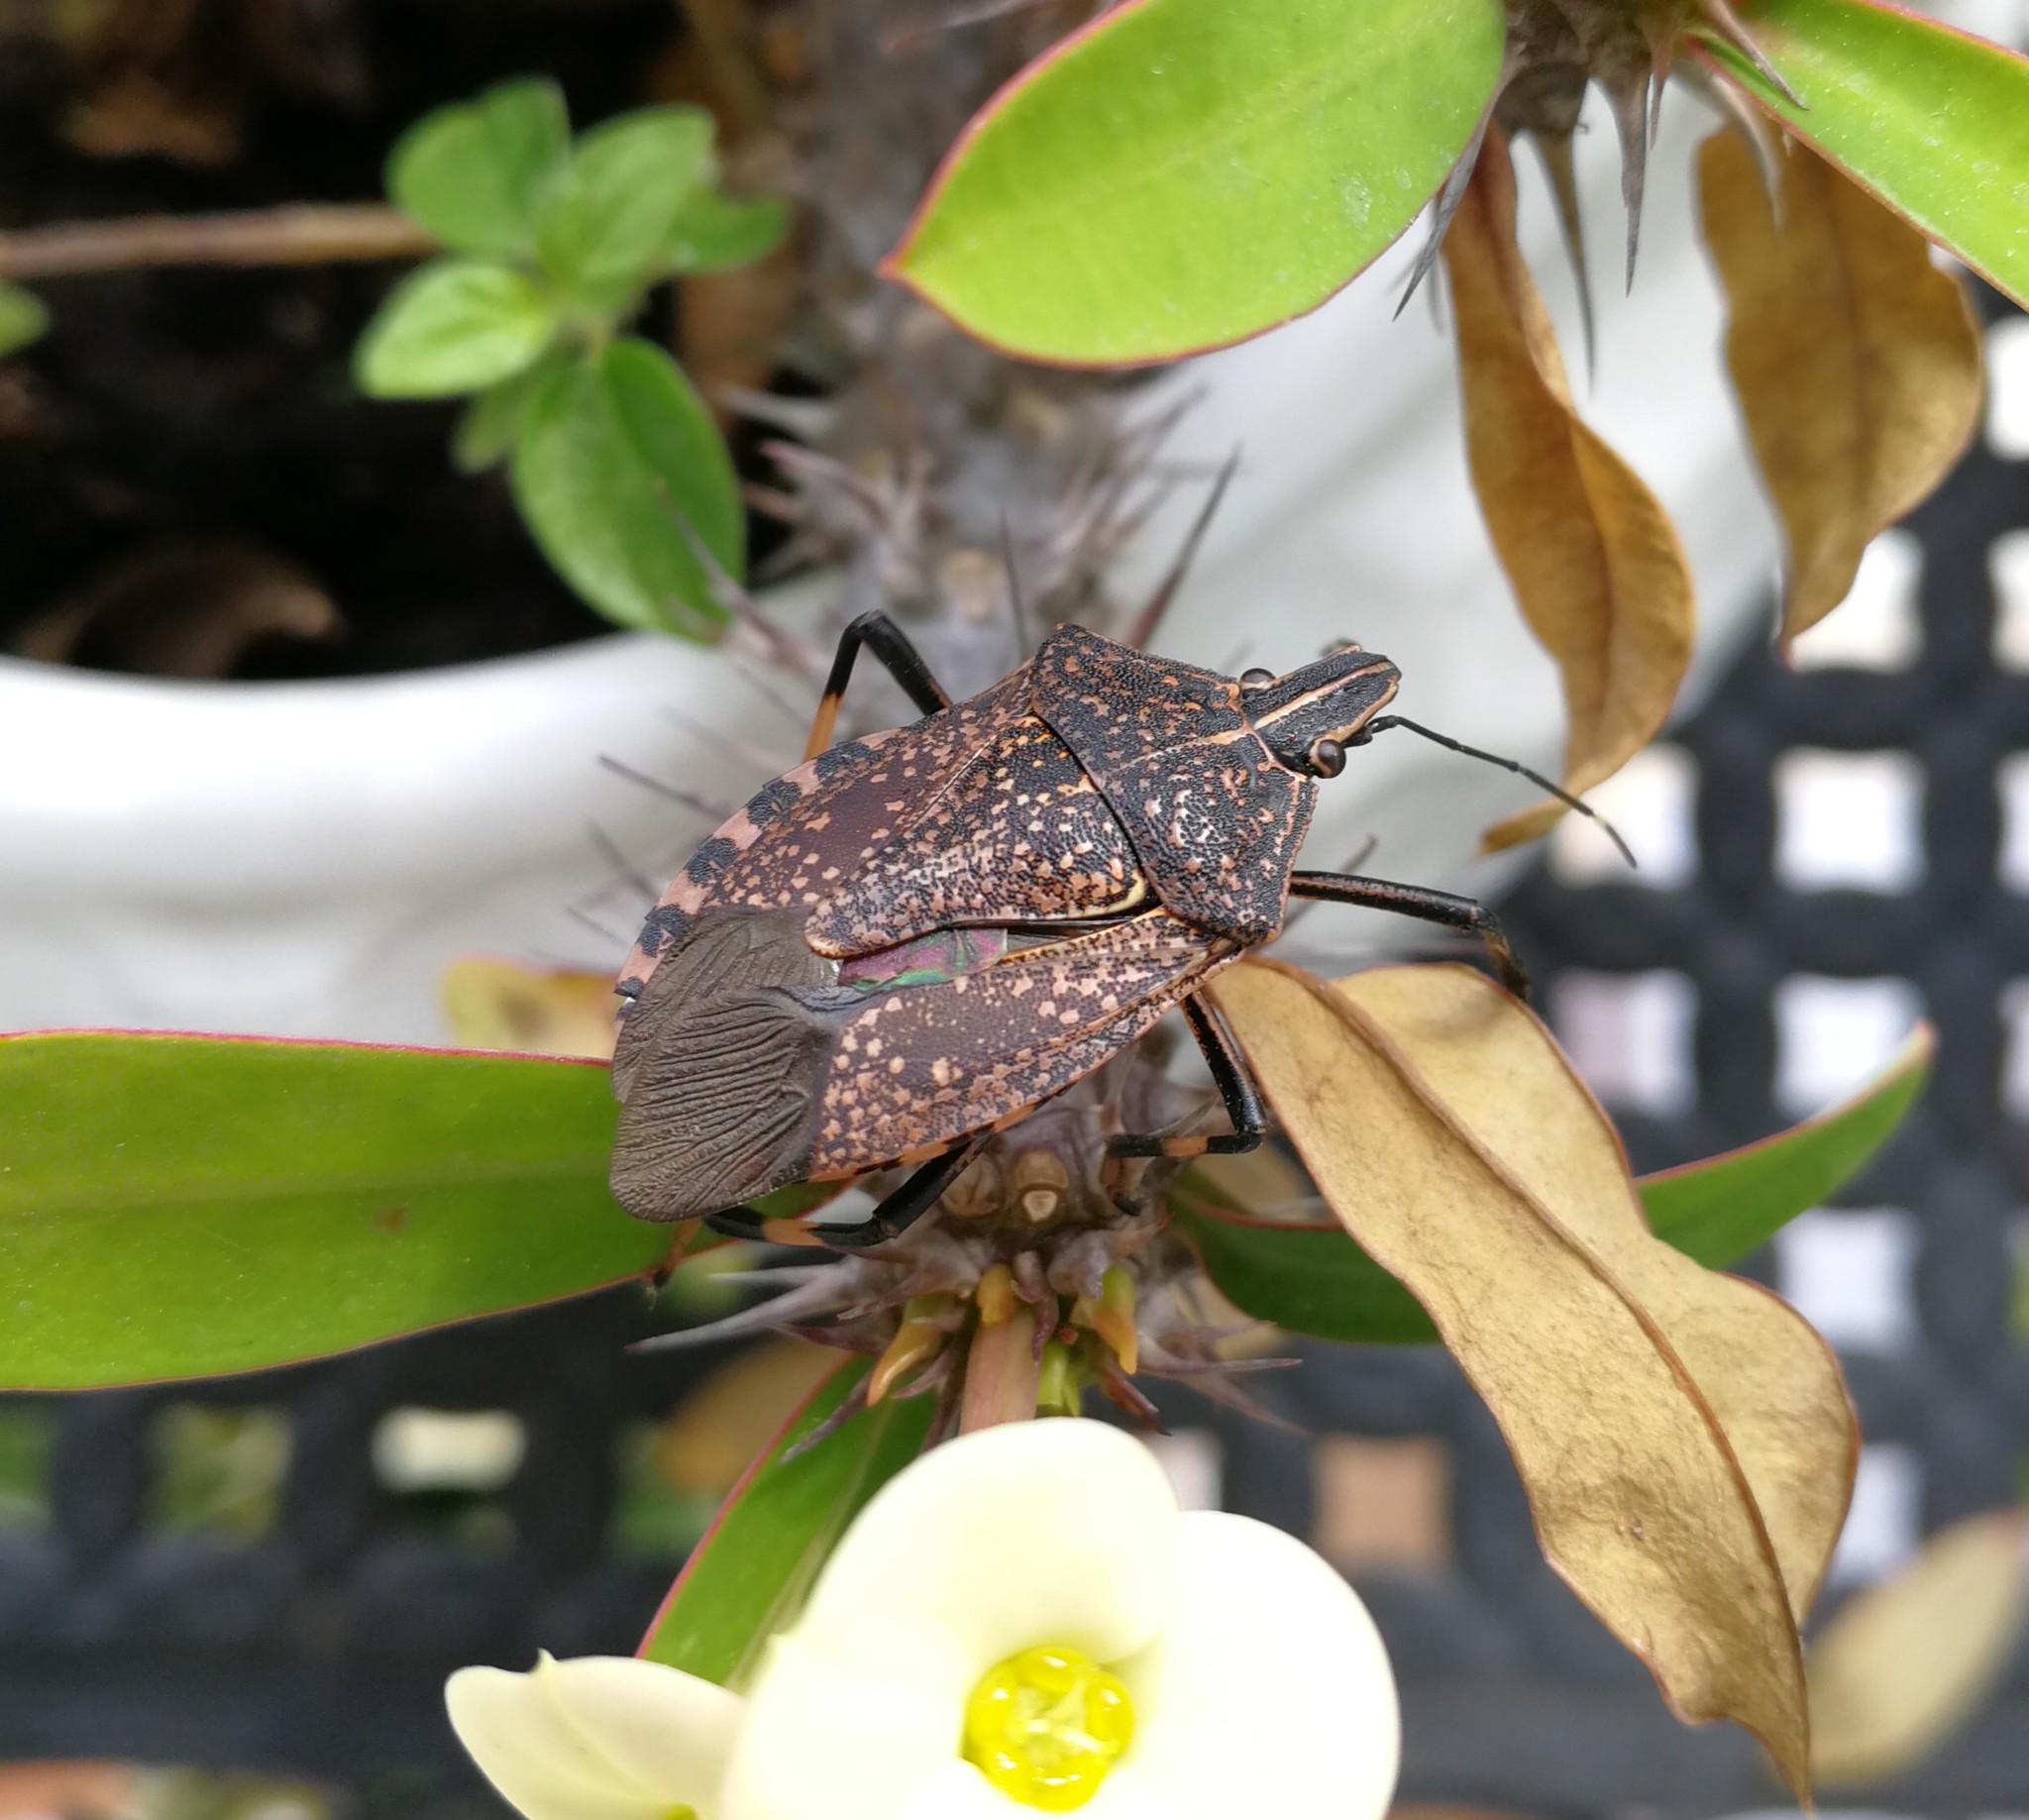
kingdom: Animalia
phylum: Arthropoda
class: Insecta
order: Hemiptera
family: Pentatomidae
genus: Erthesina
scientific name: Erthesina fullo
